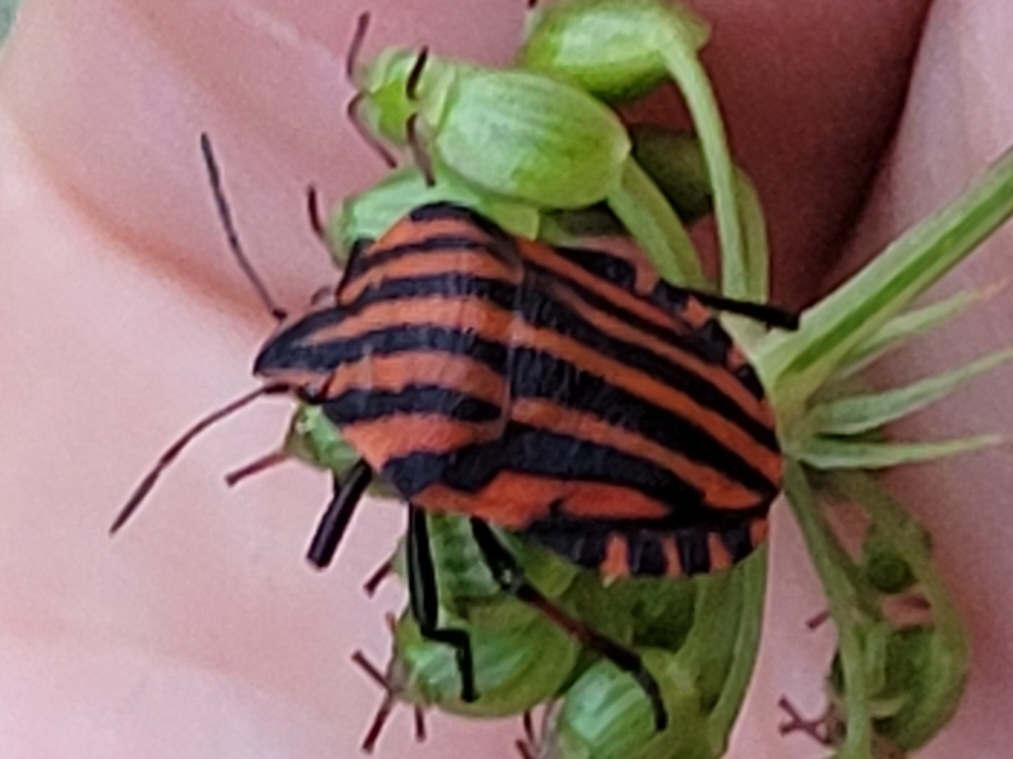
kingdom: Animalia
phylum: Arthropoda
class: Insecta
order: Hemiptera
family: Pentatomidae
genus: Graphosoma
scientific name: Graphosoma italicum
